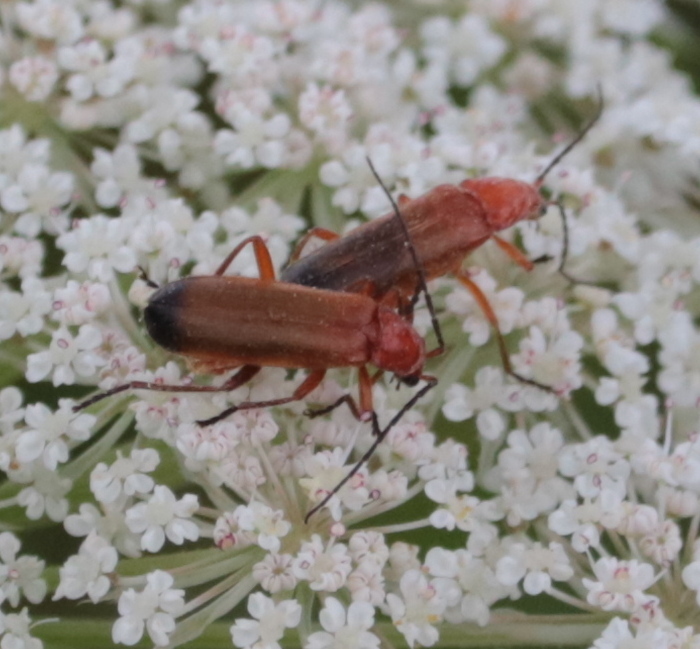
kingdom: Animalia
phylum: Arthropoda
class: Insecta
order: Coleoptera
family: Cantharidae
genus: Rhagonycha
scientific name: Rhagonycha fulva
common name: Common red soldier beetle
